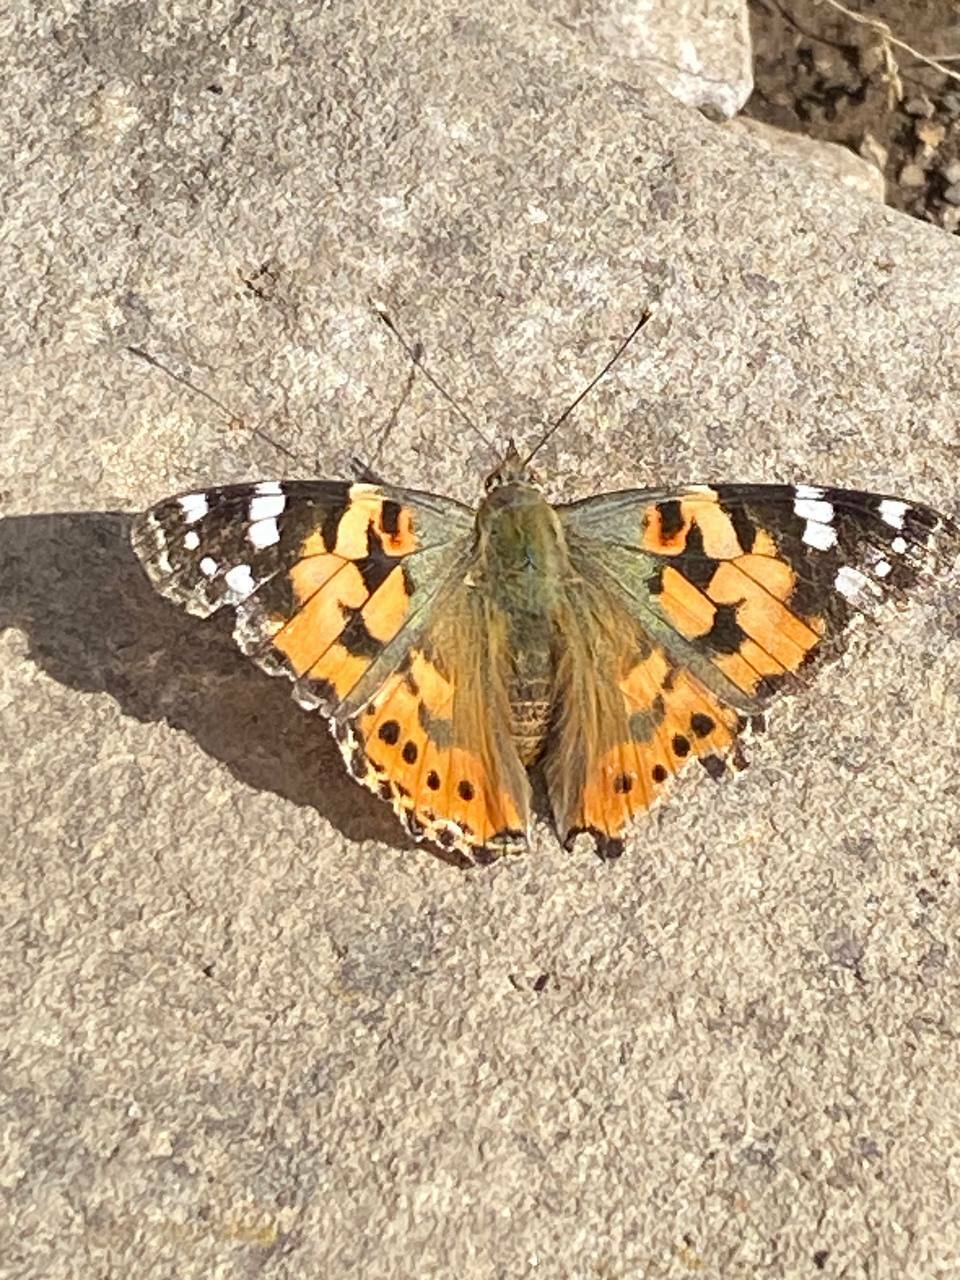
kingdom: Animalia
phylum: Arthropoda
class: Insecta
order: Lepidoptera
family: Nymphalidae
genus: Vanessa
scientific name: Vanessa cardui
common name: Painted lady
